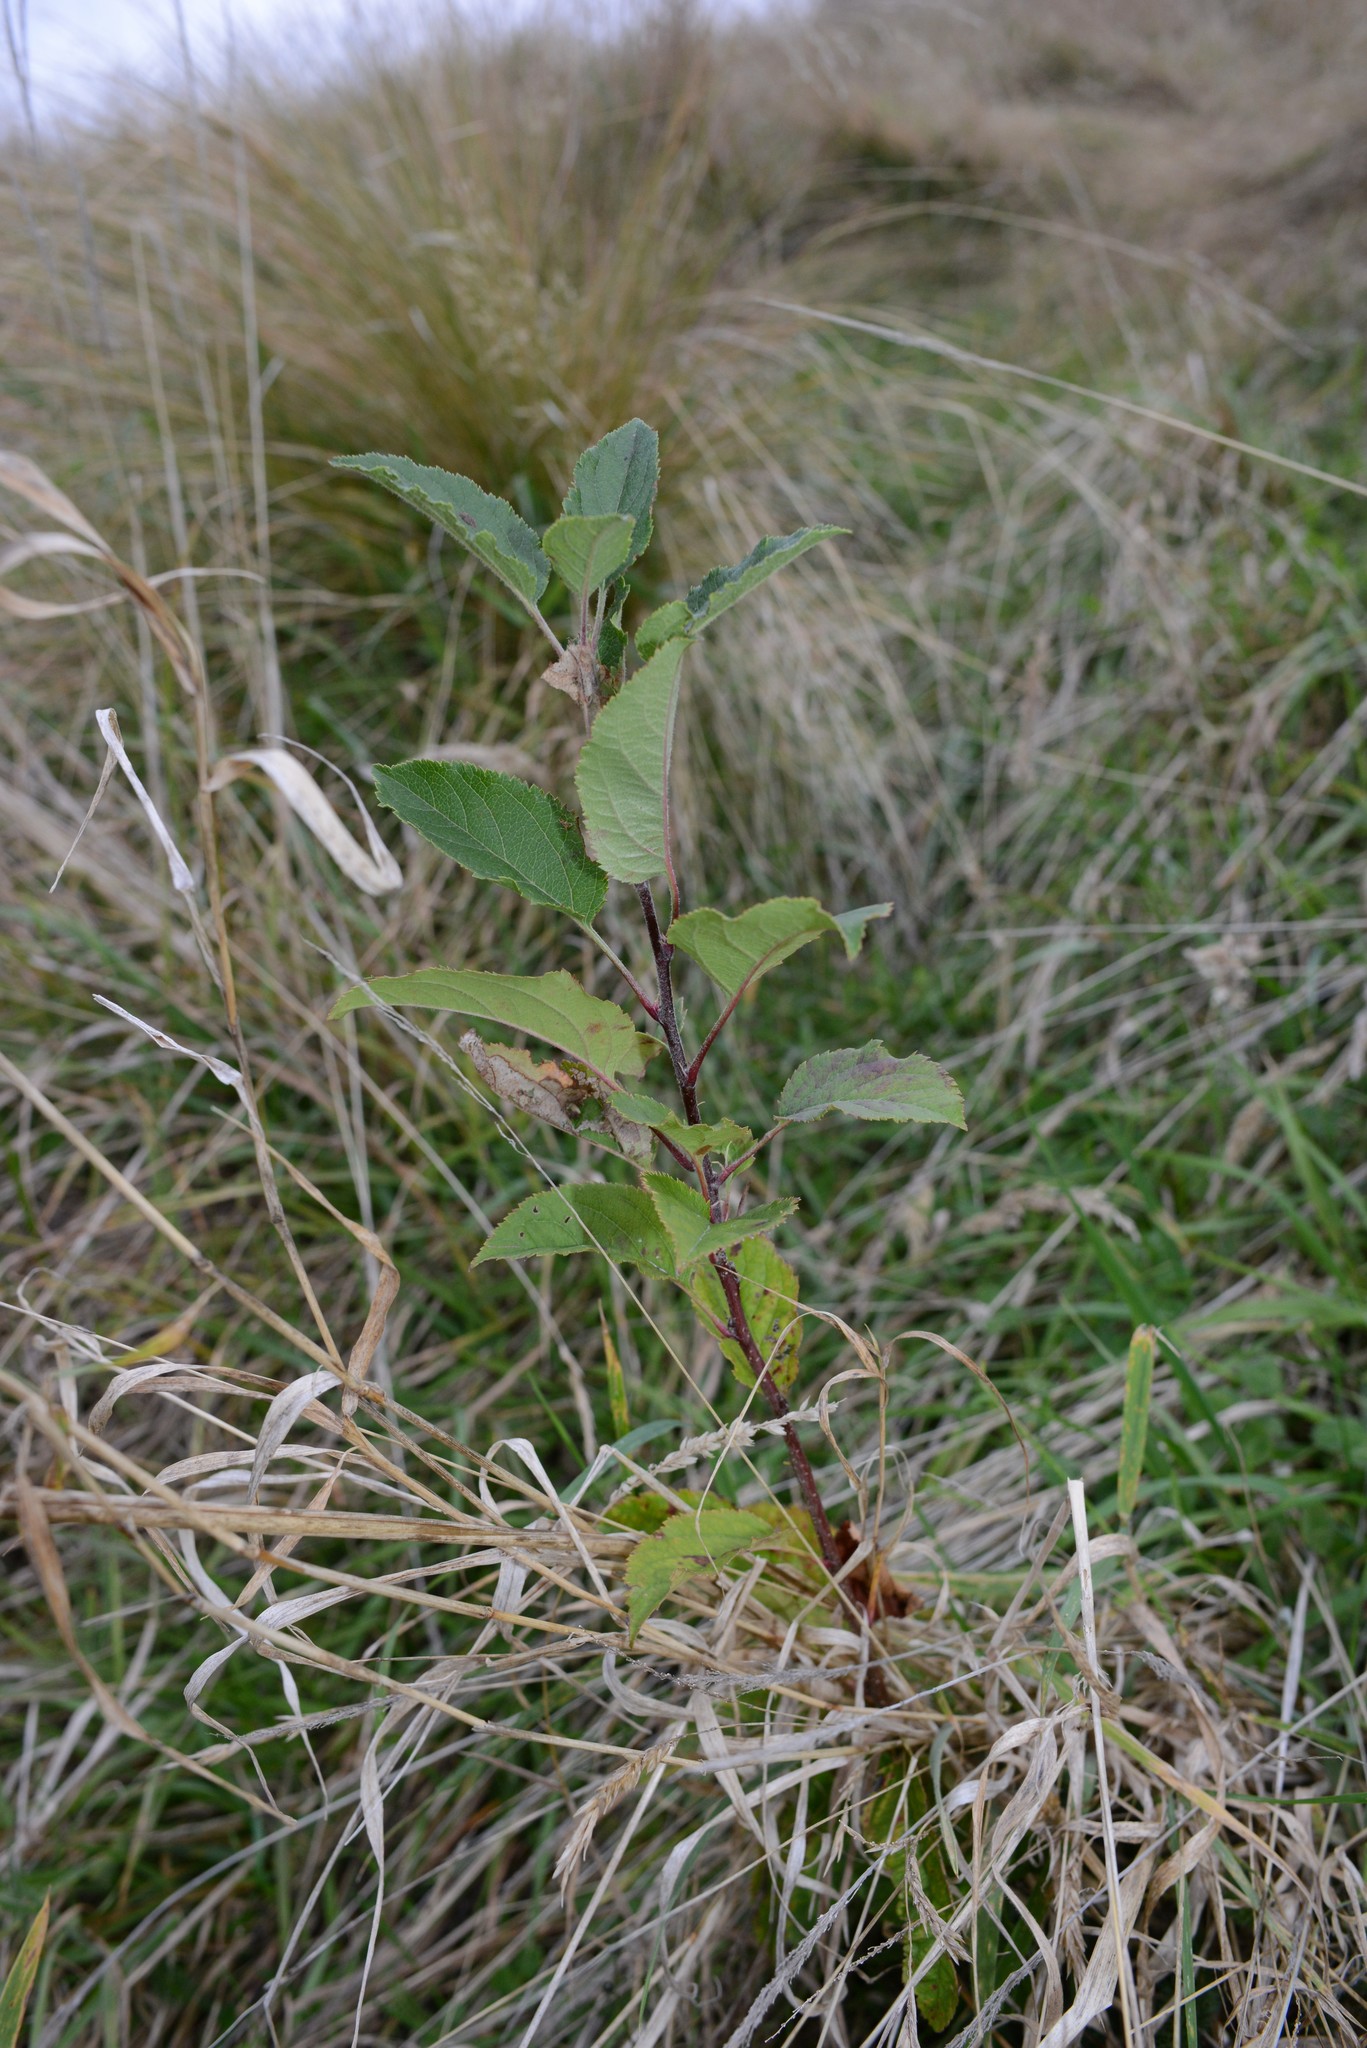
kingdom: Plantae
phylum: Tracheophyta
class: Magnoliopsida
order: Rosales
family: Rosaceae
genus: Malus
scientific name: Malus domestica
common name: Apple
